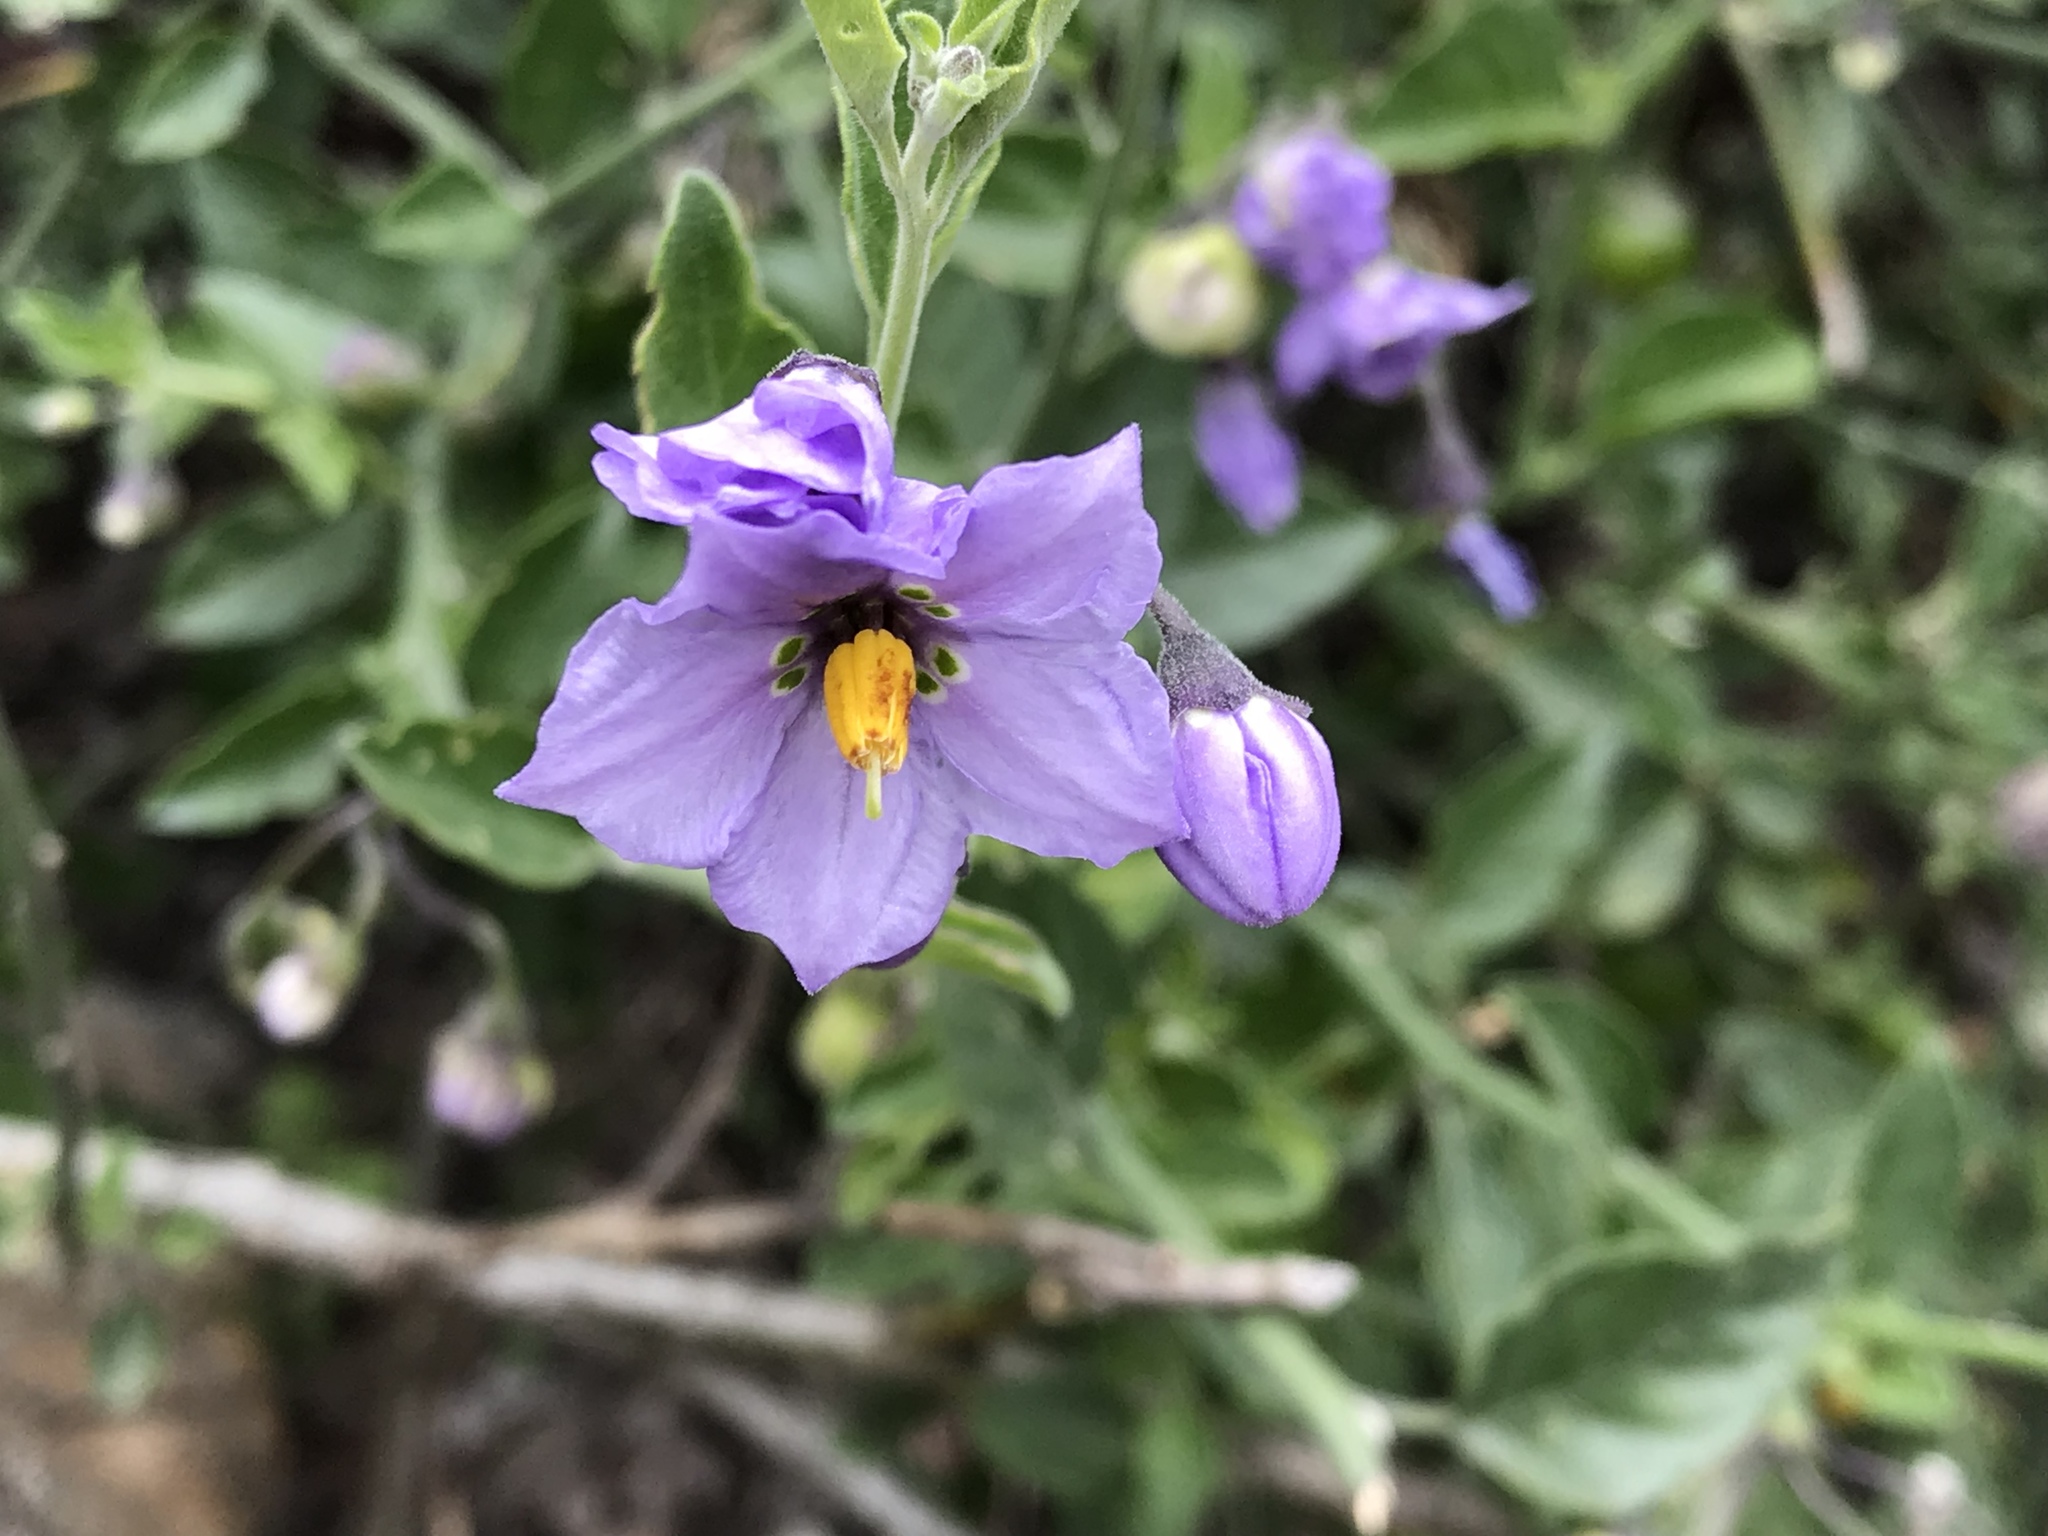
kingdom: Plantae
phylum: Tracheophyta
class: Magnoliopsida
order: Solanales
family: Solanaceae
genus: Solanum
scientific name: Solanum umbelliferum
